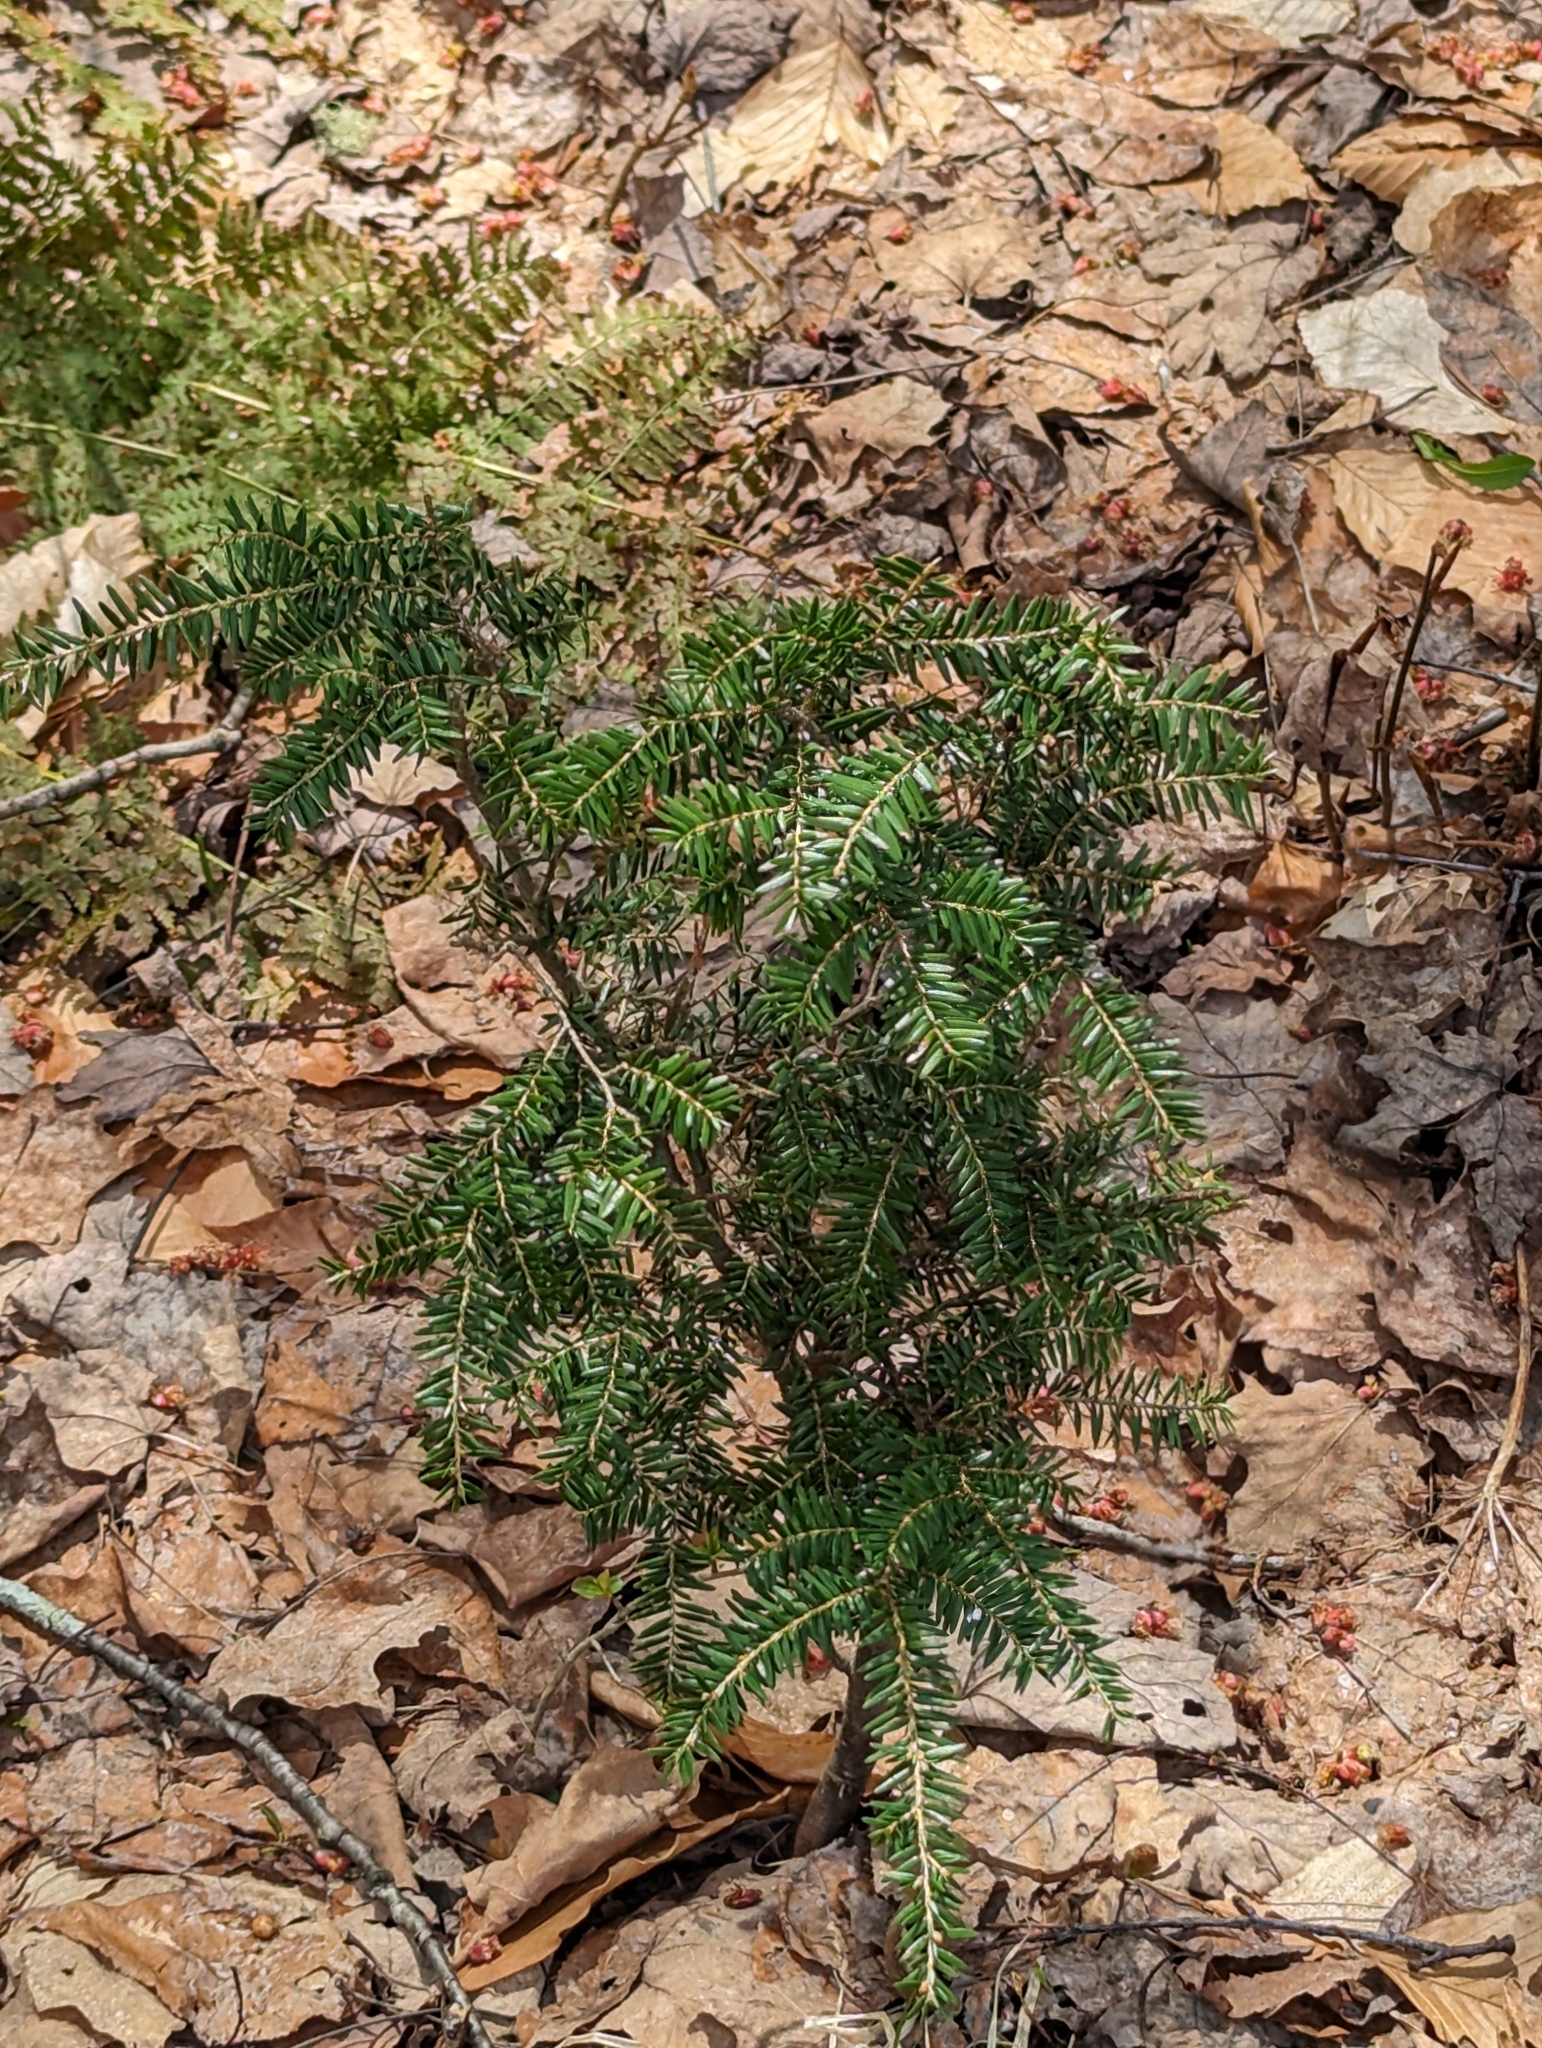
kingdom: Plantae
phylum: Tracheophyta
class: Pinopsida
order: Pinales
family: Pinaceae
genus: Tsuga
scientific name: Tsuga canadensis
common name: Eastern hemlock
